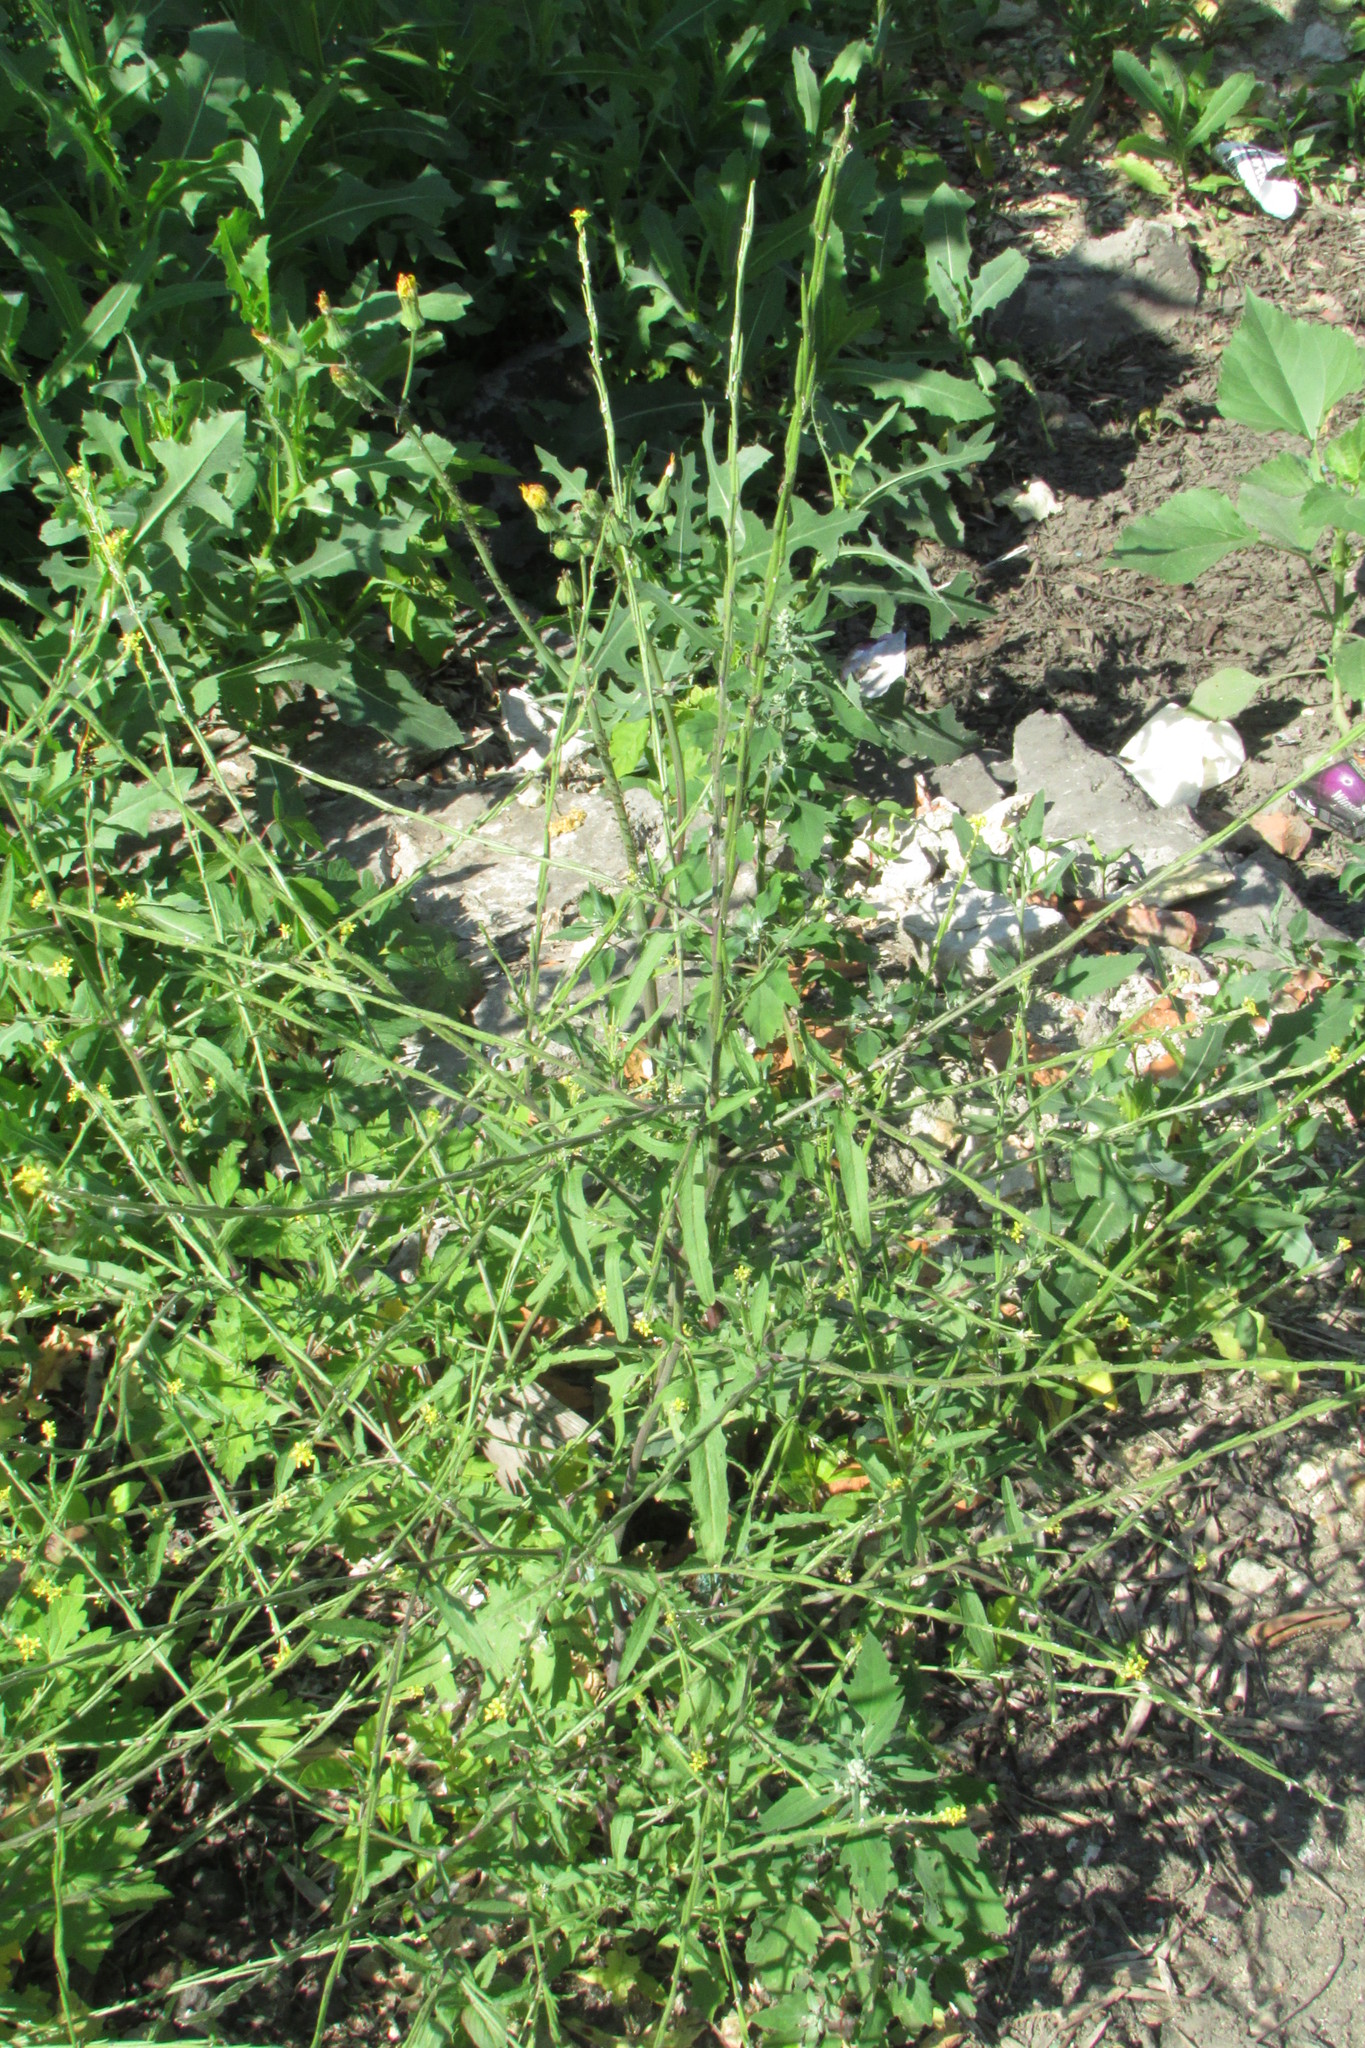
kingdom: Plantae
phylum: Tracheophyta
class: Magnoliopsida
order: Brassicales
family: Brassicaceae
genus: Sisymbrium
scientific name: Sisymbrium officinale
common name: Hedge mustard
